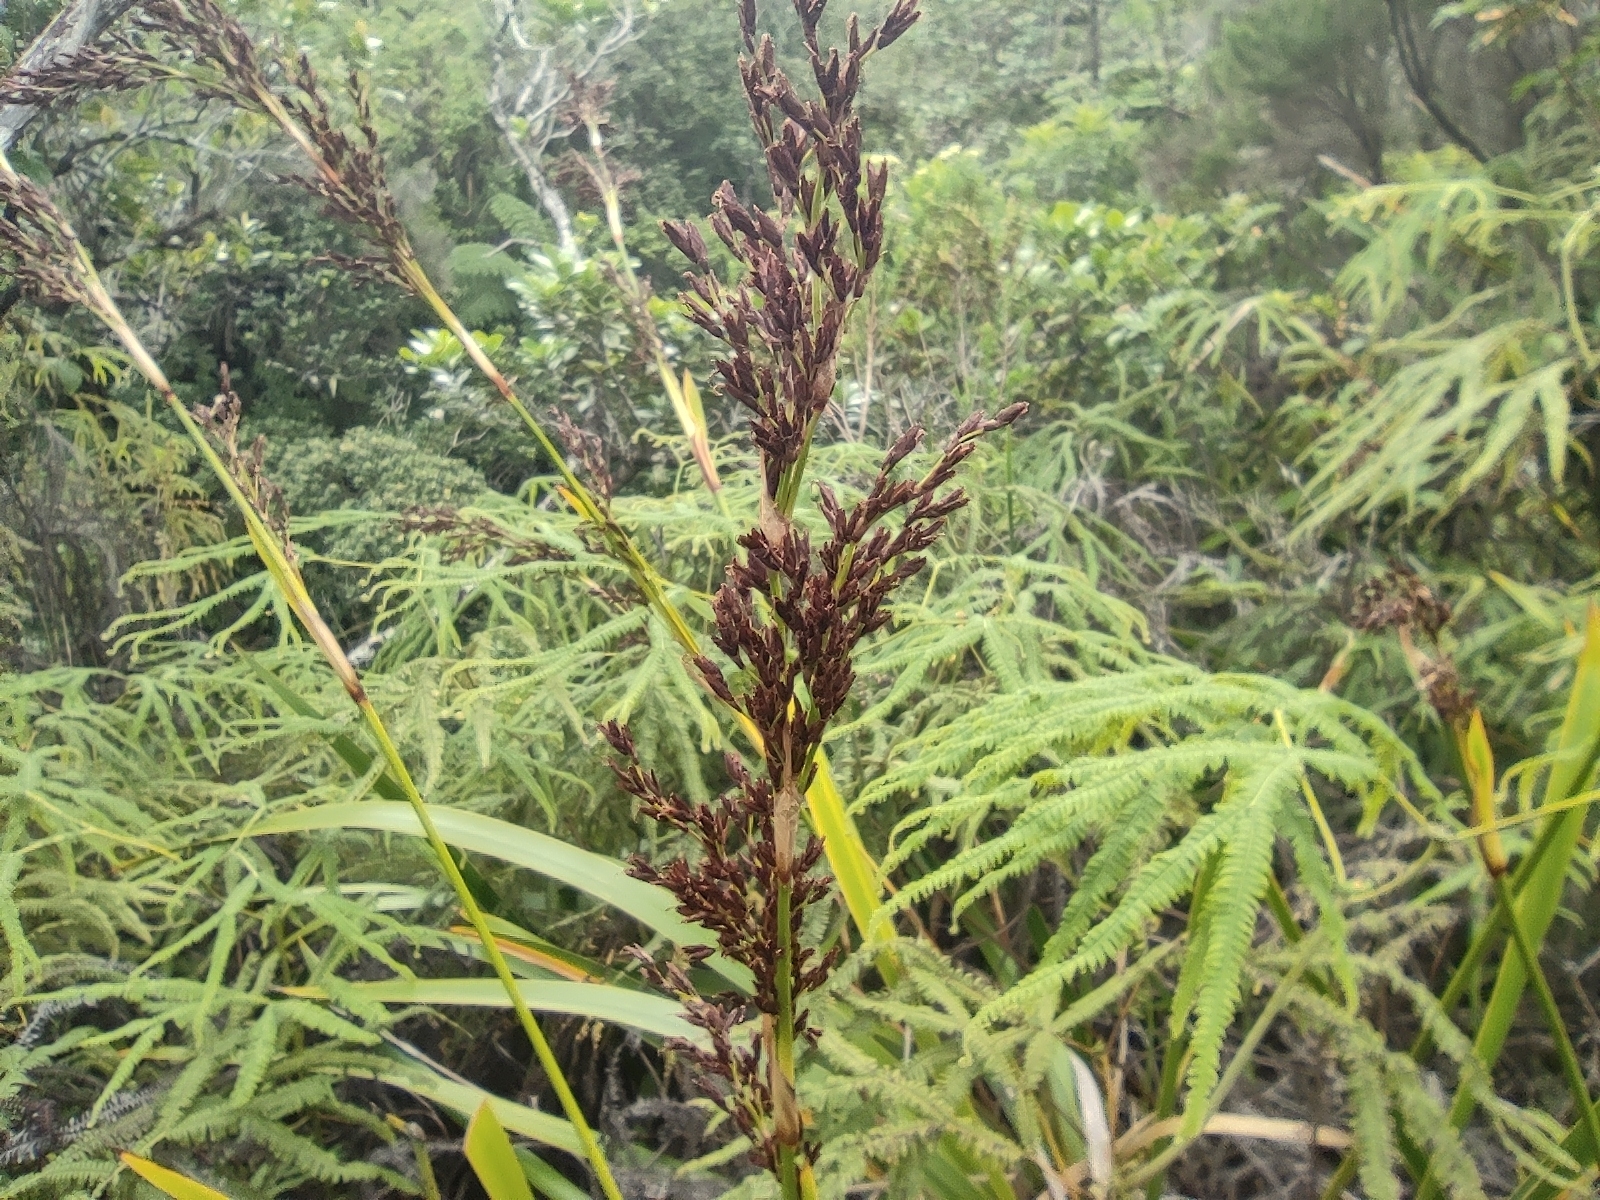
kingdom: Plantae
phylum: Tracheophyta
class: Liliopsida
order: Poales
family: Cyperaceae
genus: Machaerina
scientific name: Machaerina iridifolia
